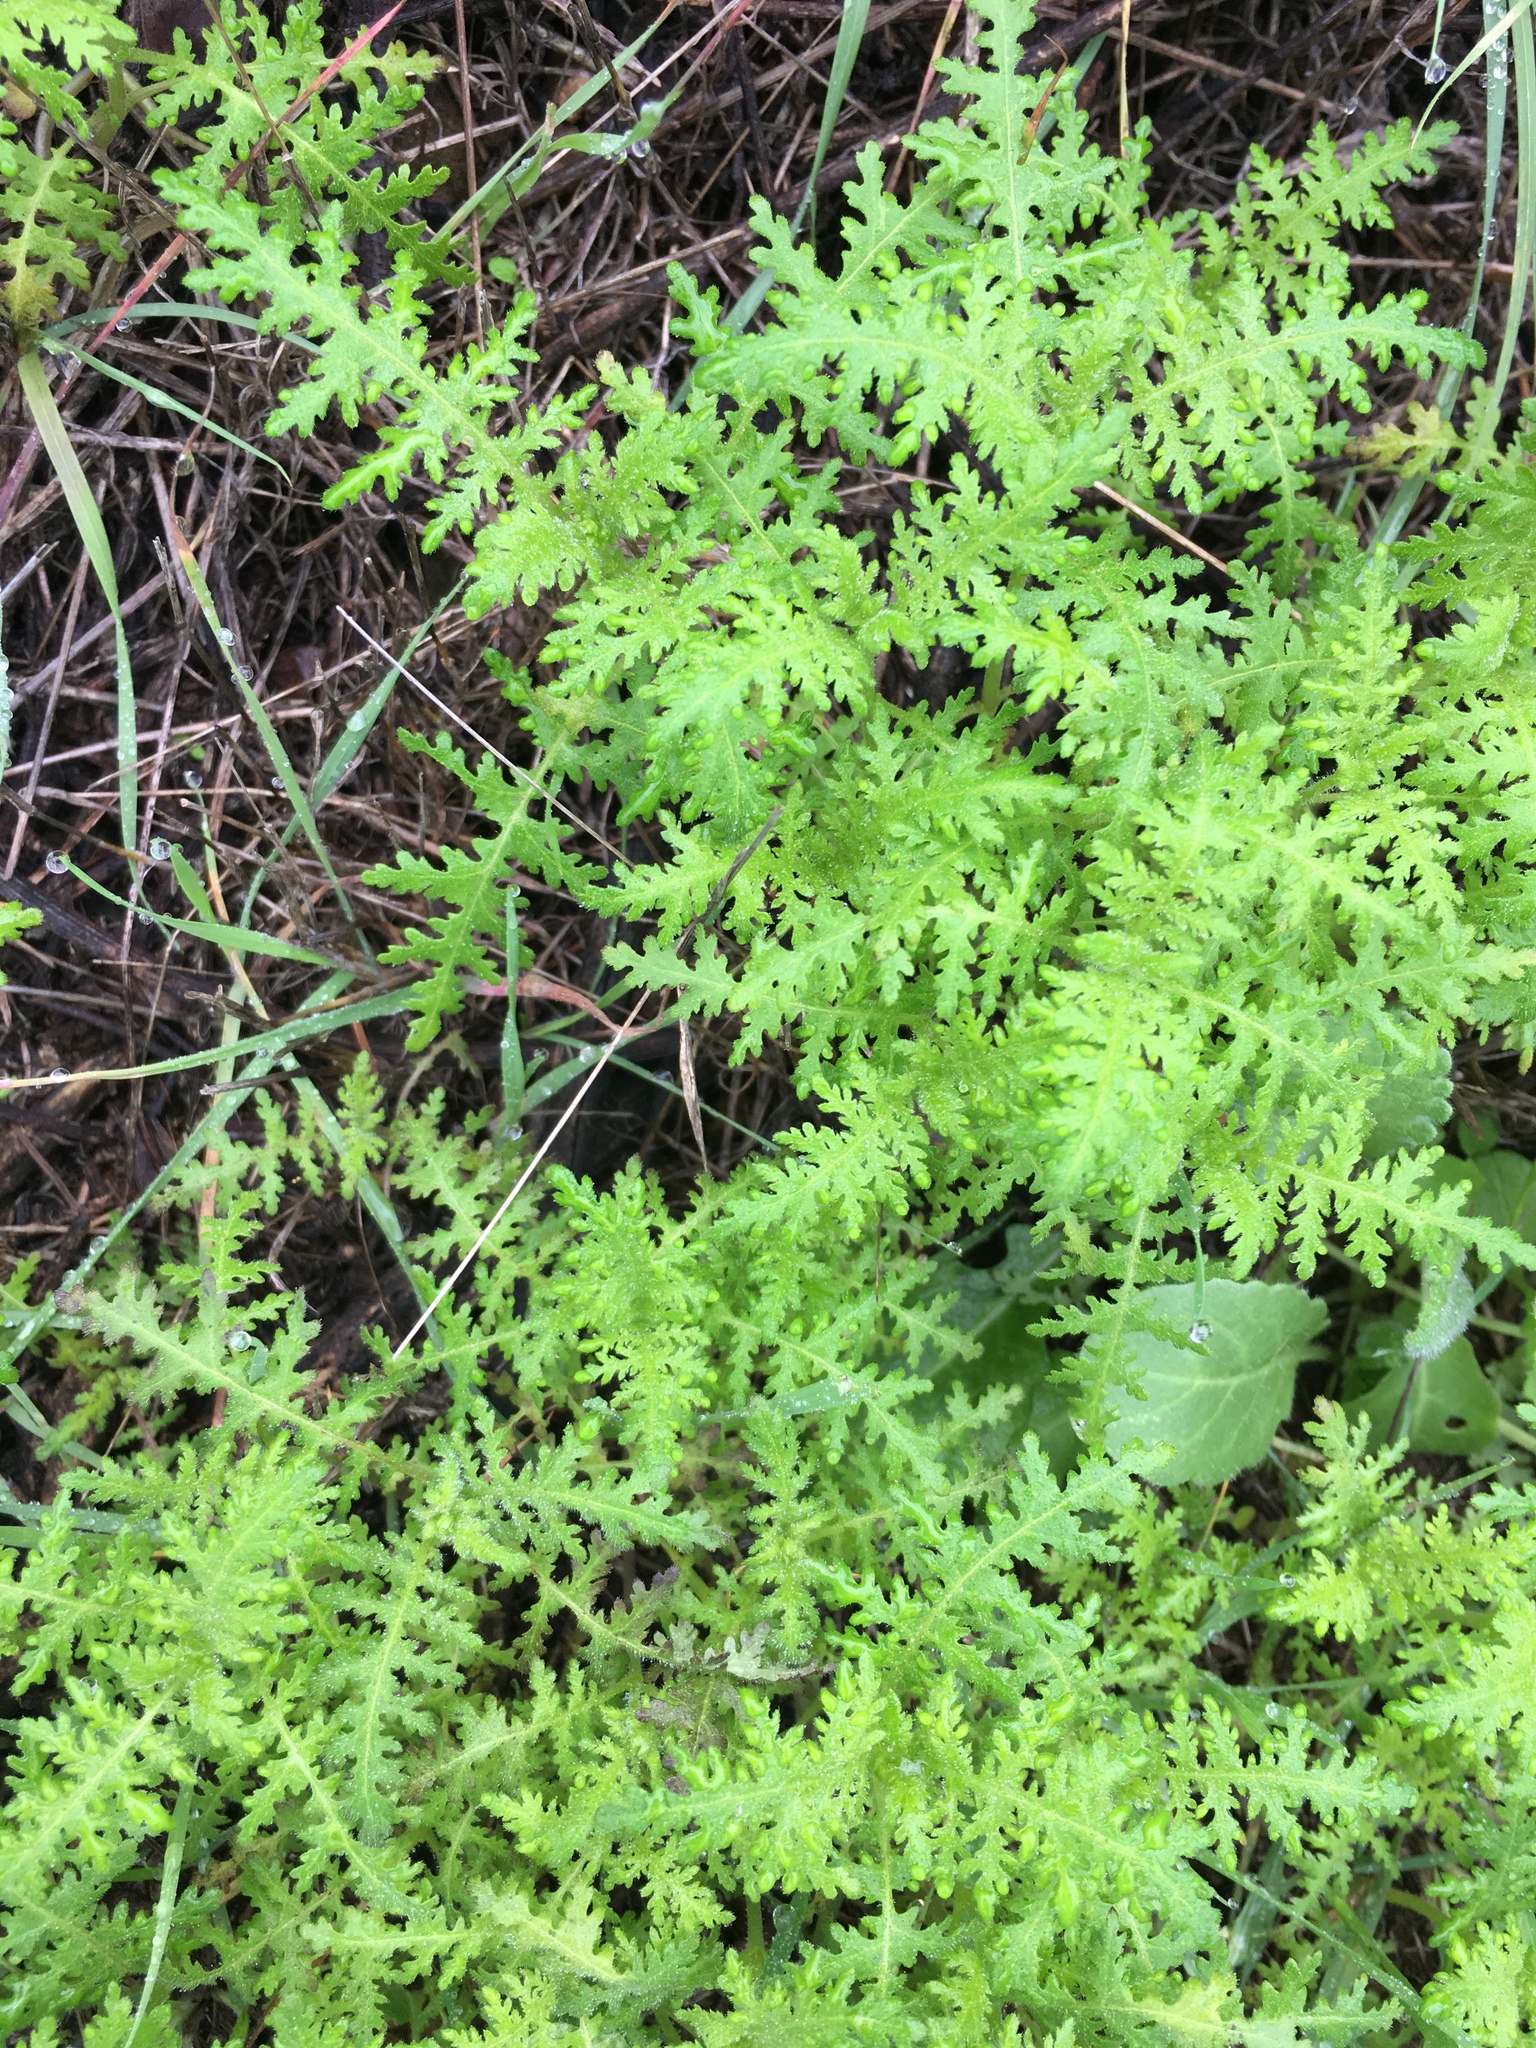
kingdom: Plantae
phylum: Tracheophyta
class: Magnoliopsida
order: Boraginales
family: Hydrophyllaceae
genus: Eucrypta
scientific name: Eucrypta chrysanthemifolia
